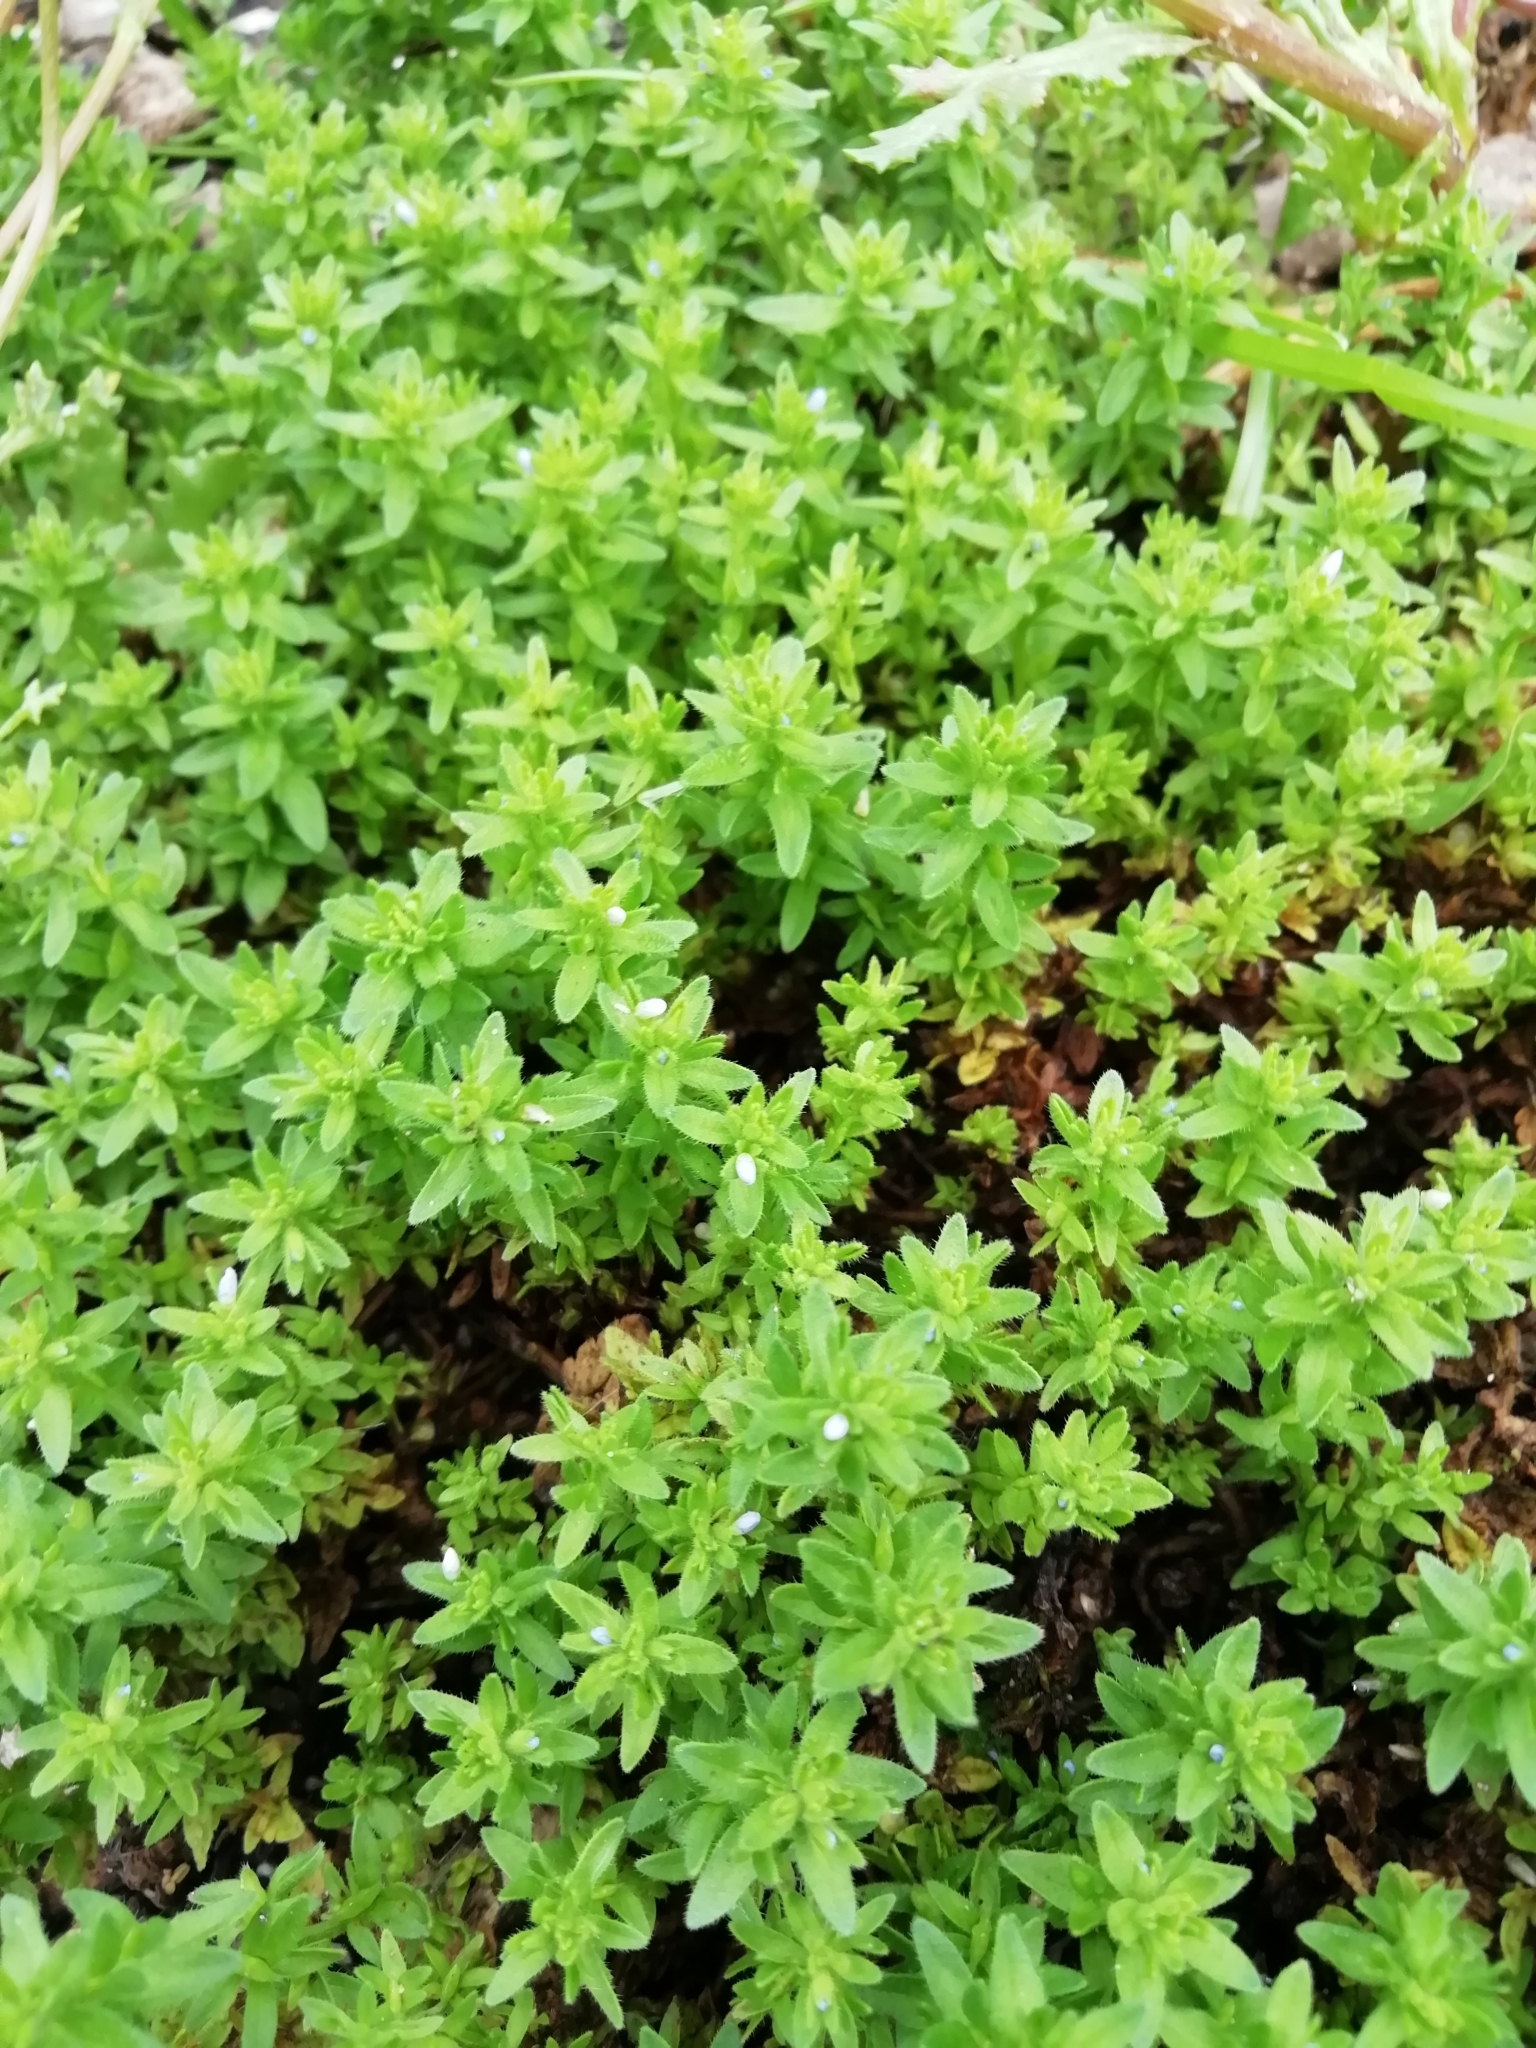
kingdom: Plantae
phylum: Tracheophyta
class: Magnoliopsida
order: Lamiales
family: Plantaginaceae
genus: Veronica
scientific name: Veronica arvensis
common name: Corn speedwell
